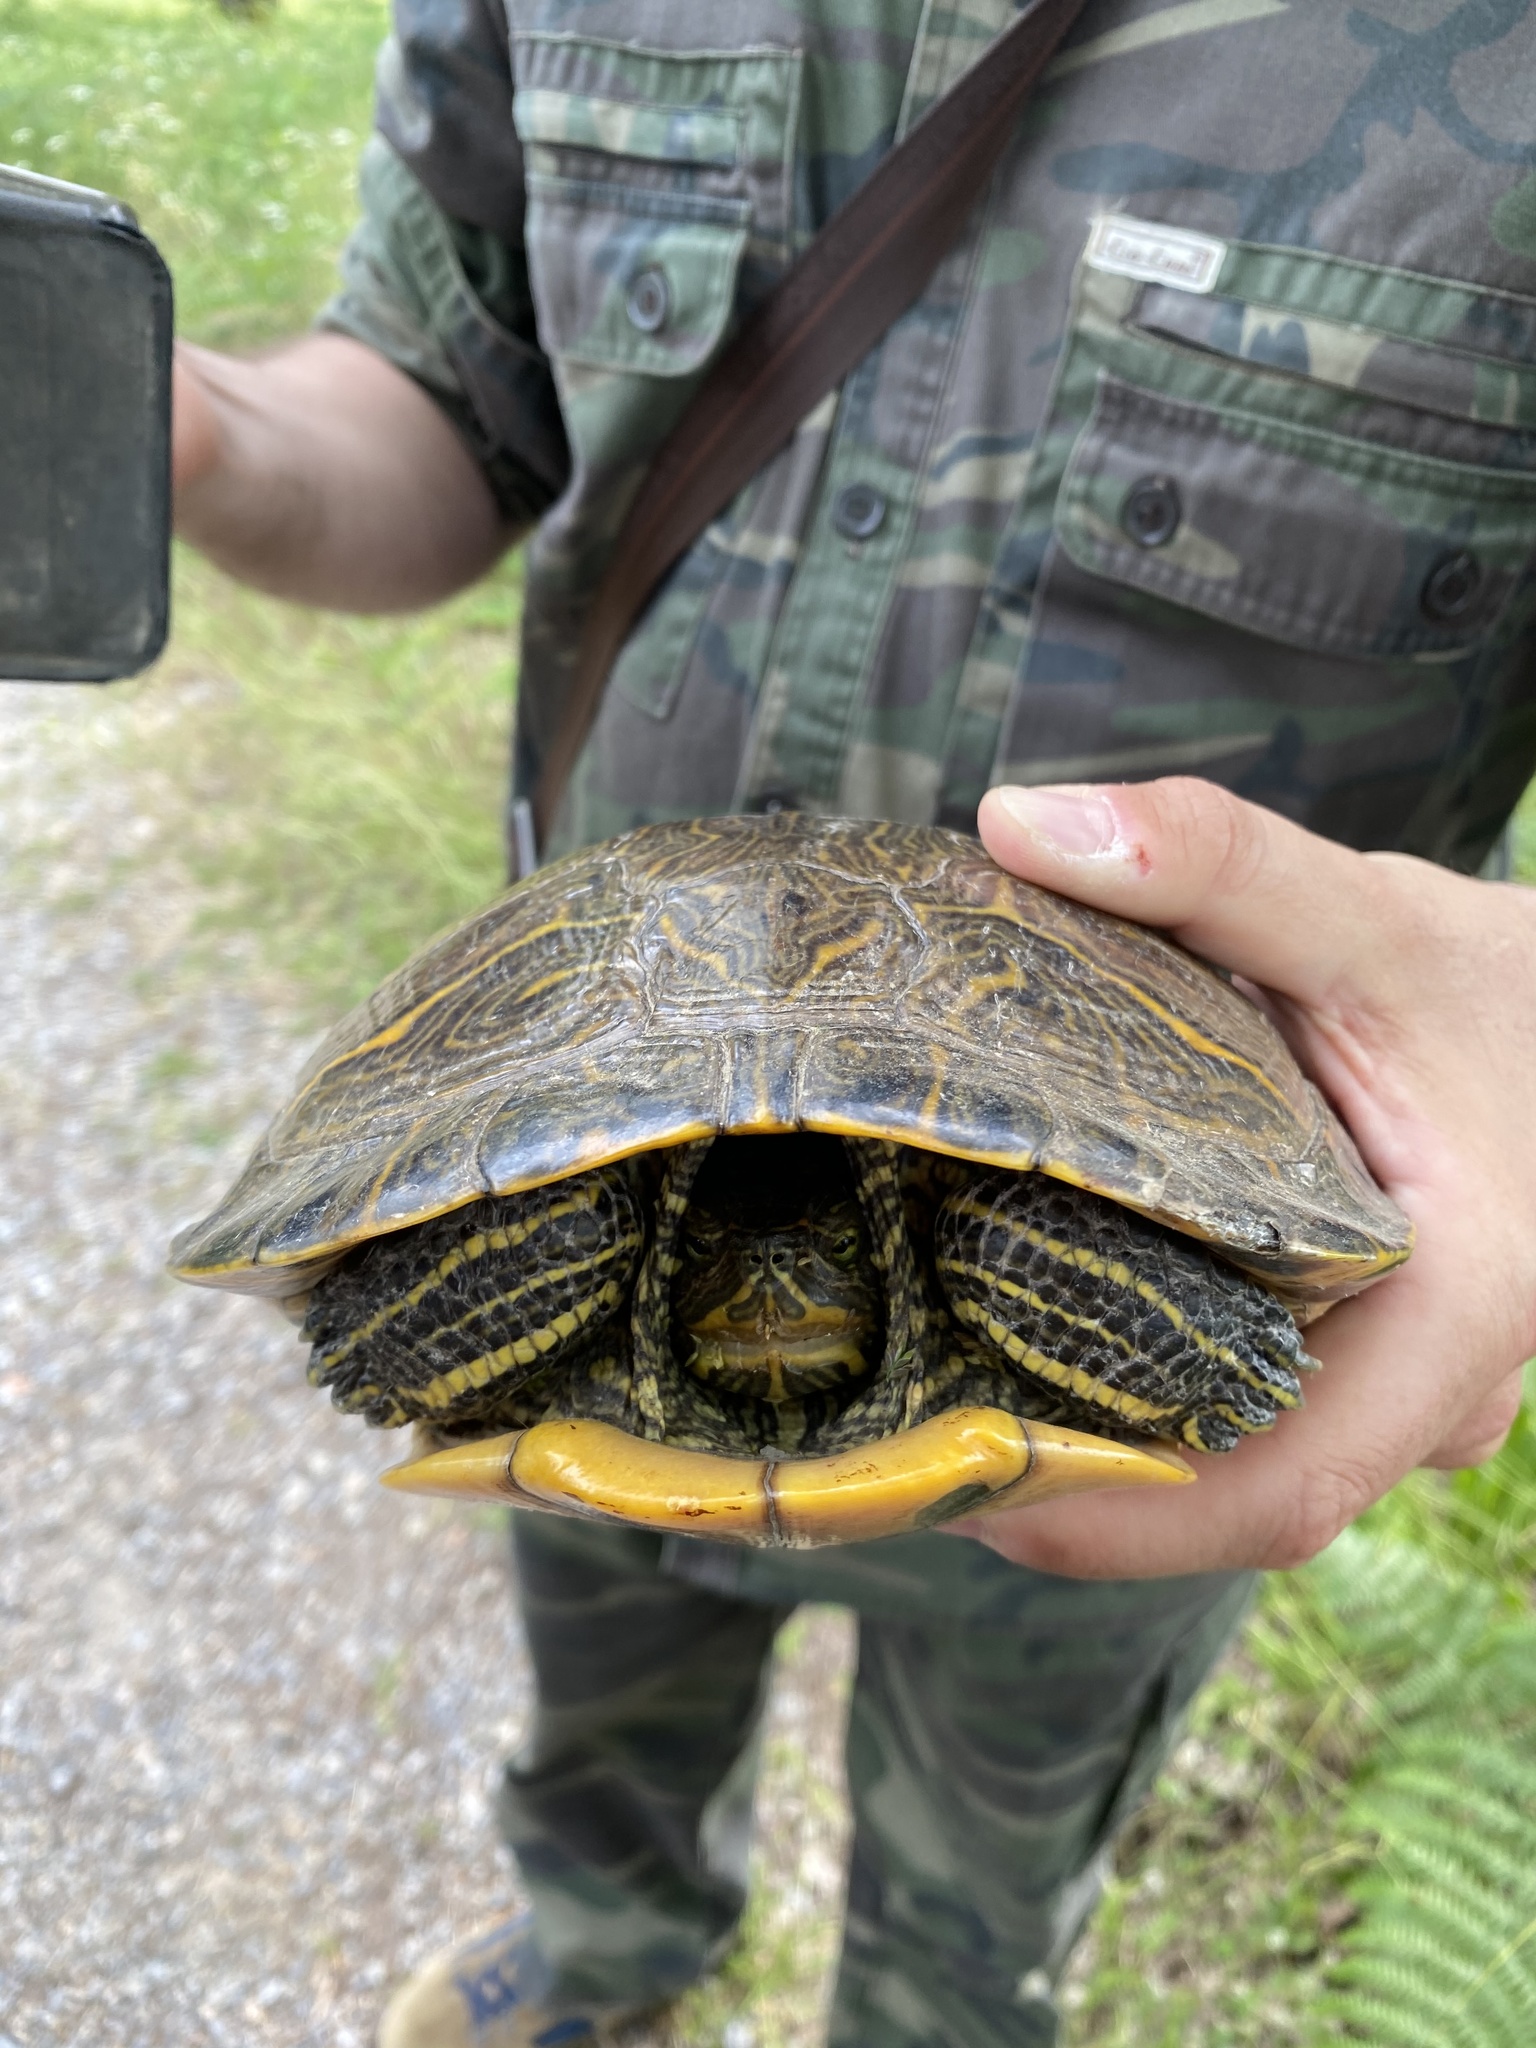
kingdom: Animalia
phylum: Chordata
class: Testudines
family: Emydidae
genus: Trachemys
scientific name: Trachemys scripta
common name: Slider
